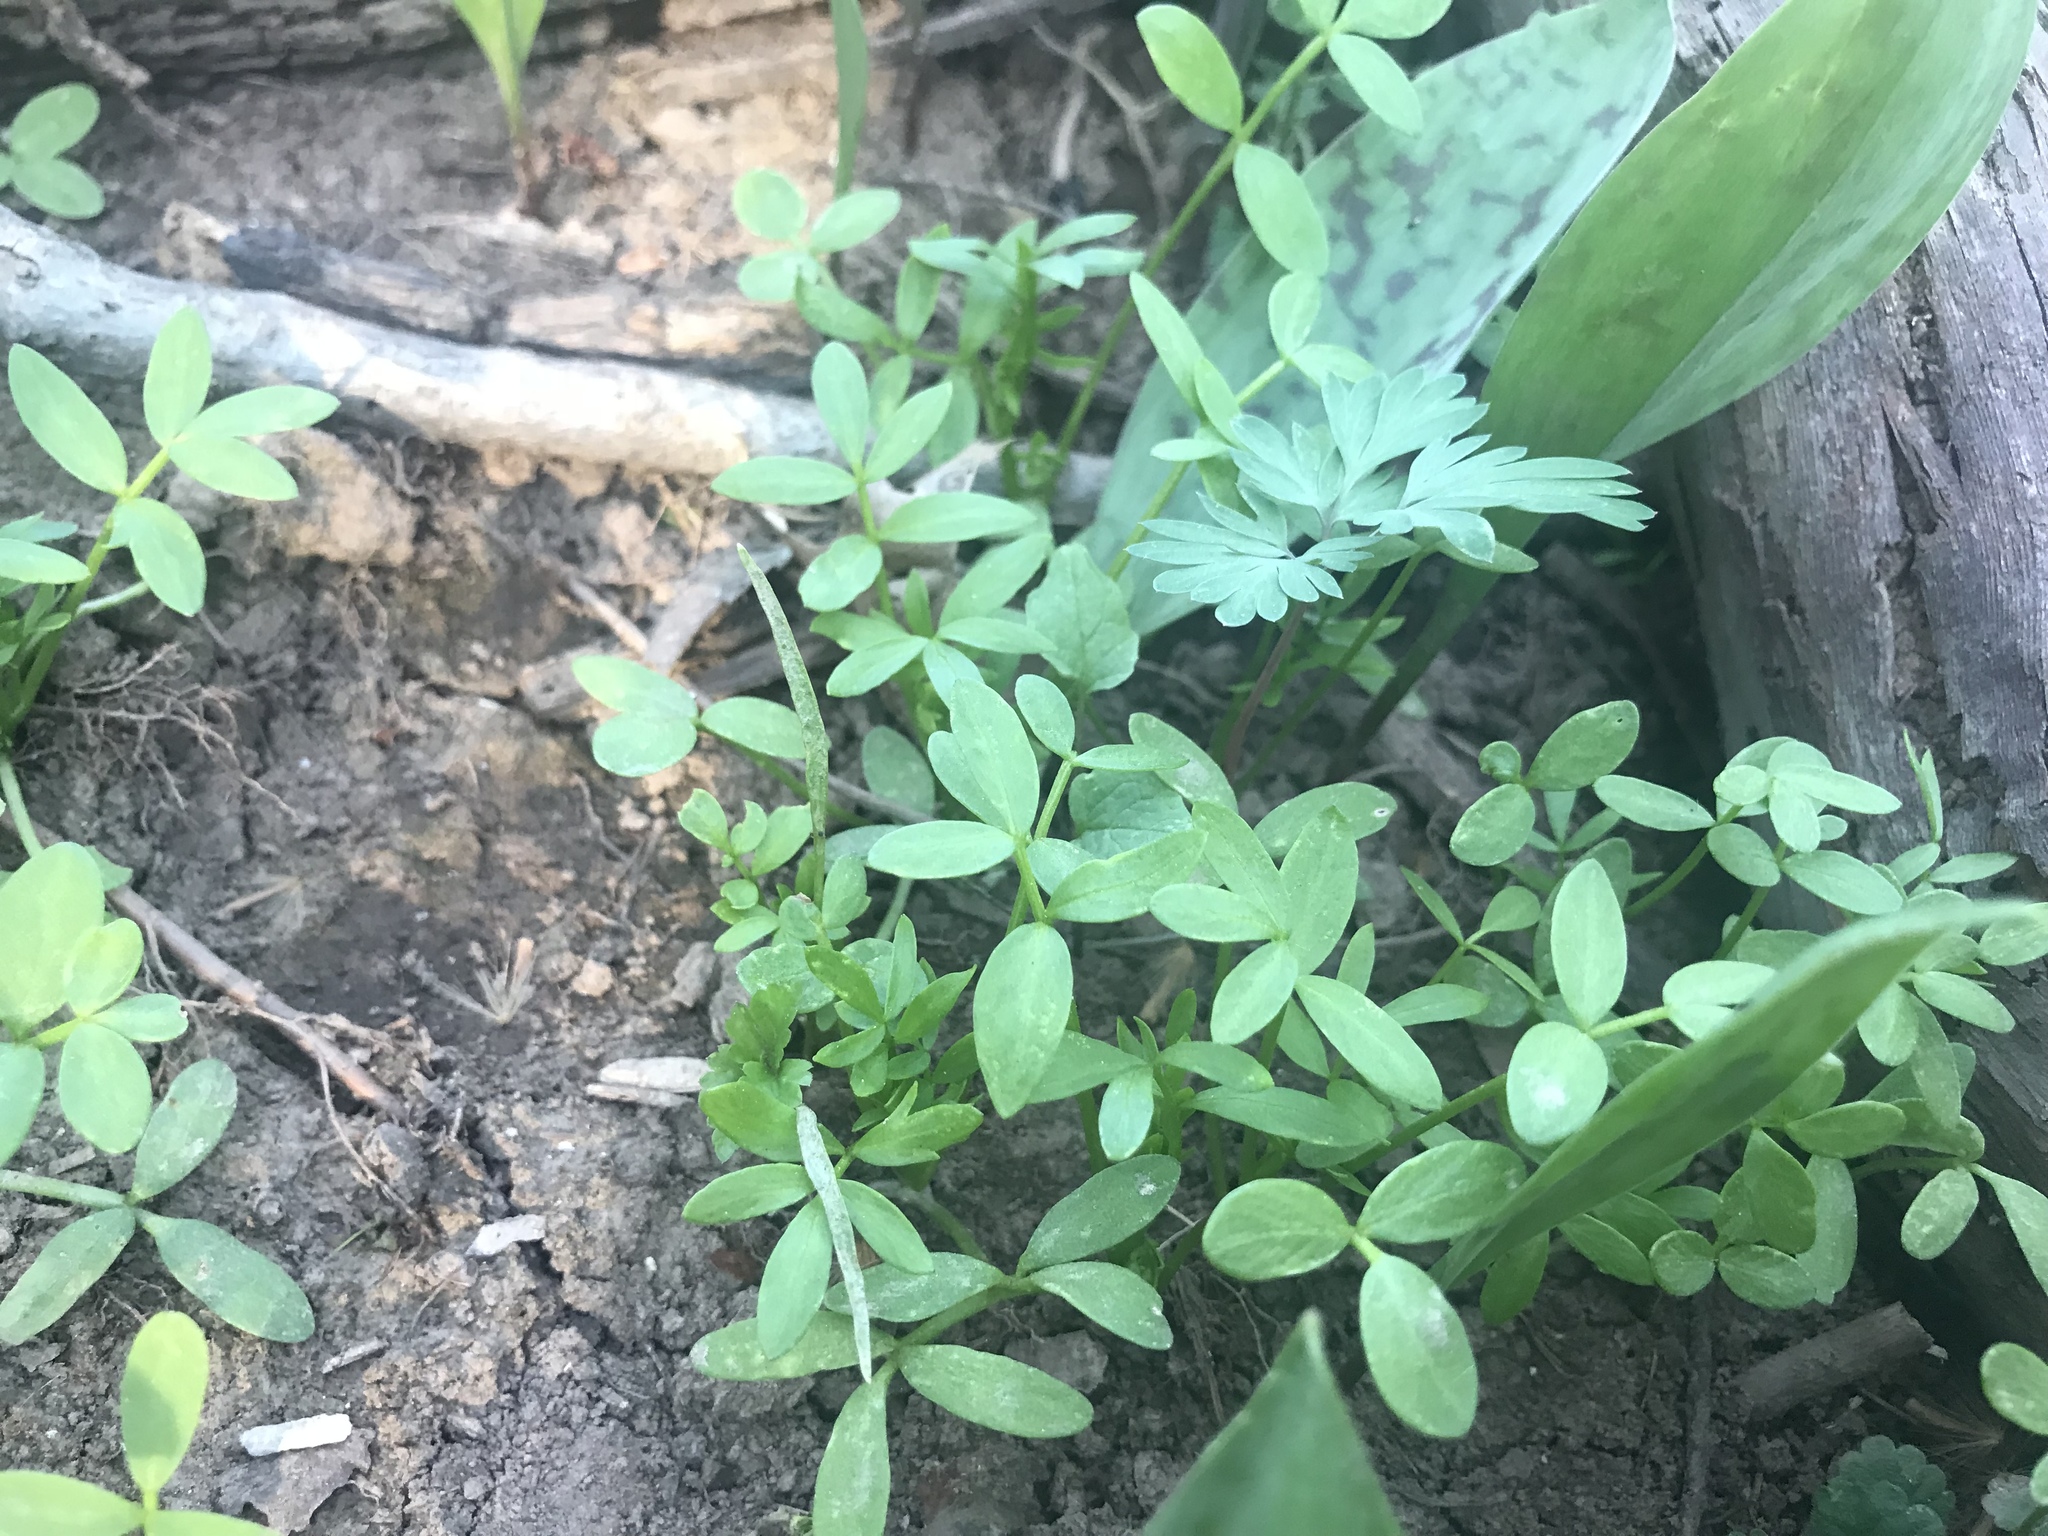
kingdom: Plantae
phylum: Tracheophyta
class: Magnoliopsida
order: Brassicales
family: Limnanthaceae
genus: Floerkea
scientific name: Floerkea proserpinacoides
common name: False mermaid
